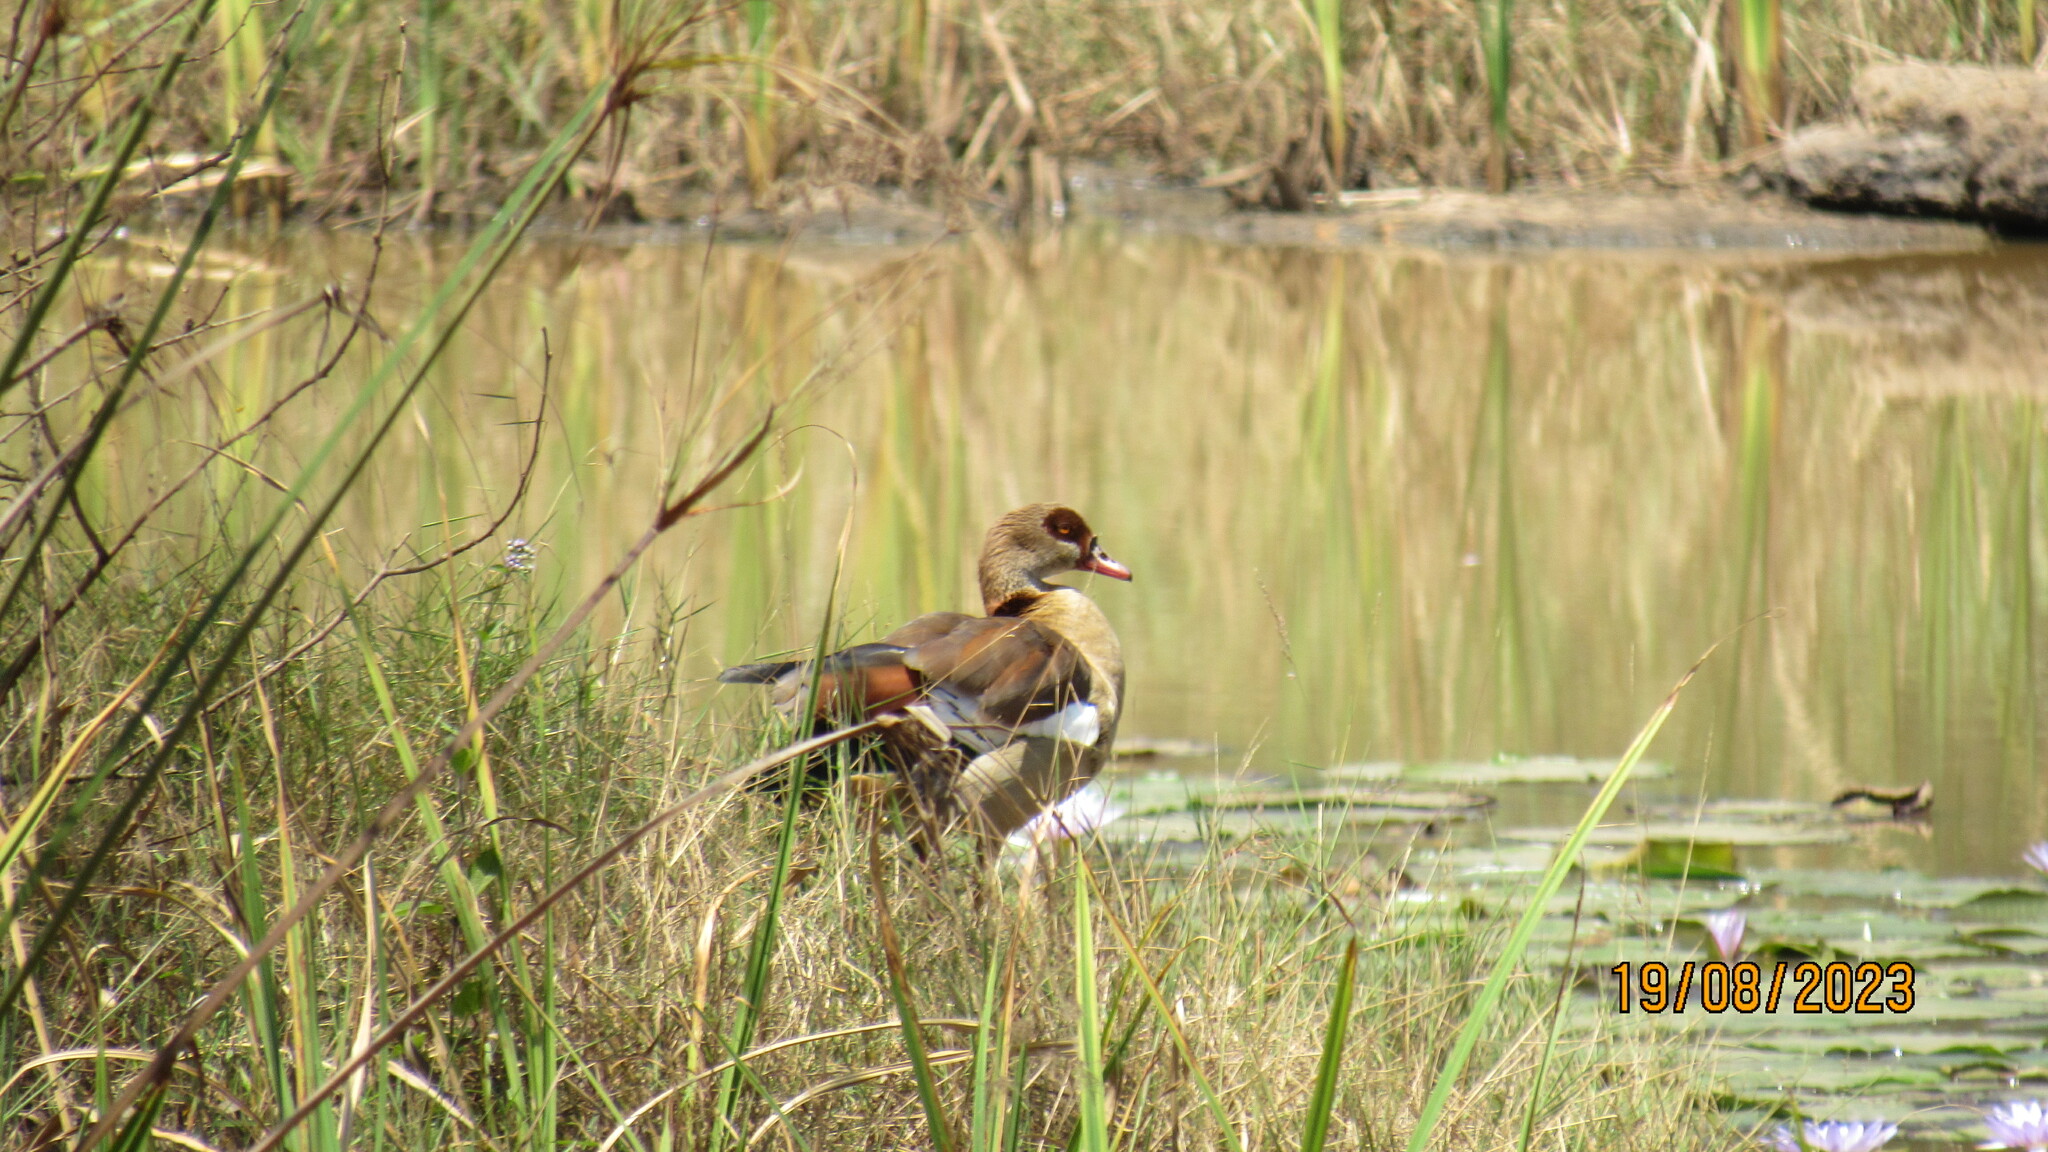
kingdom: Animalia
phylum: Chordata
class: Aves
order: Anseriformes
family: Anatidae
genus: Alopochen
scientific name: Alopochen aegyptiaca
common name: Egyptian goose
